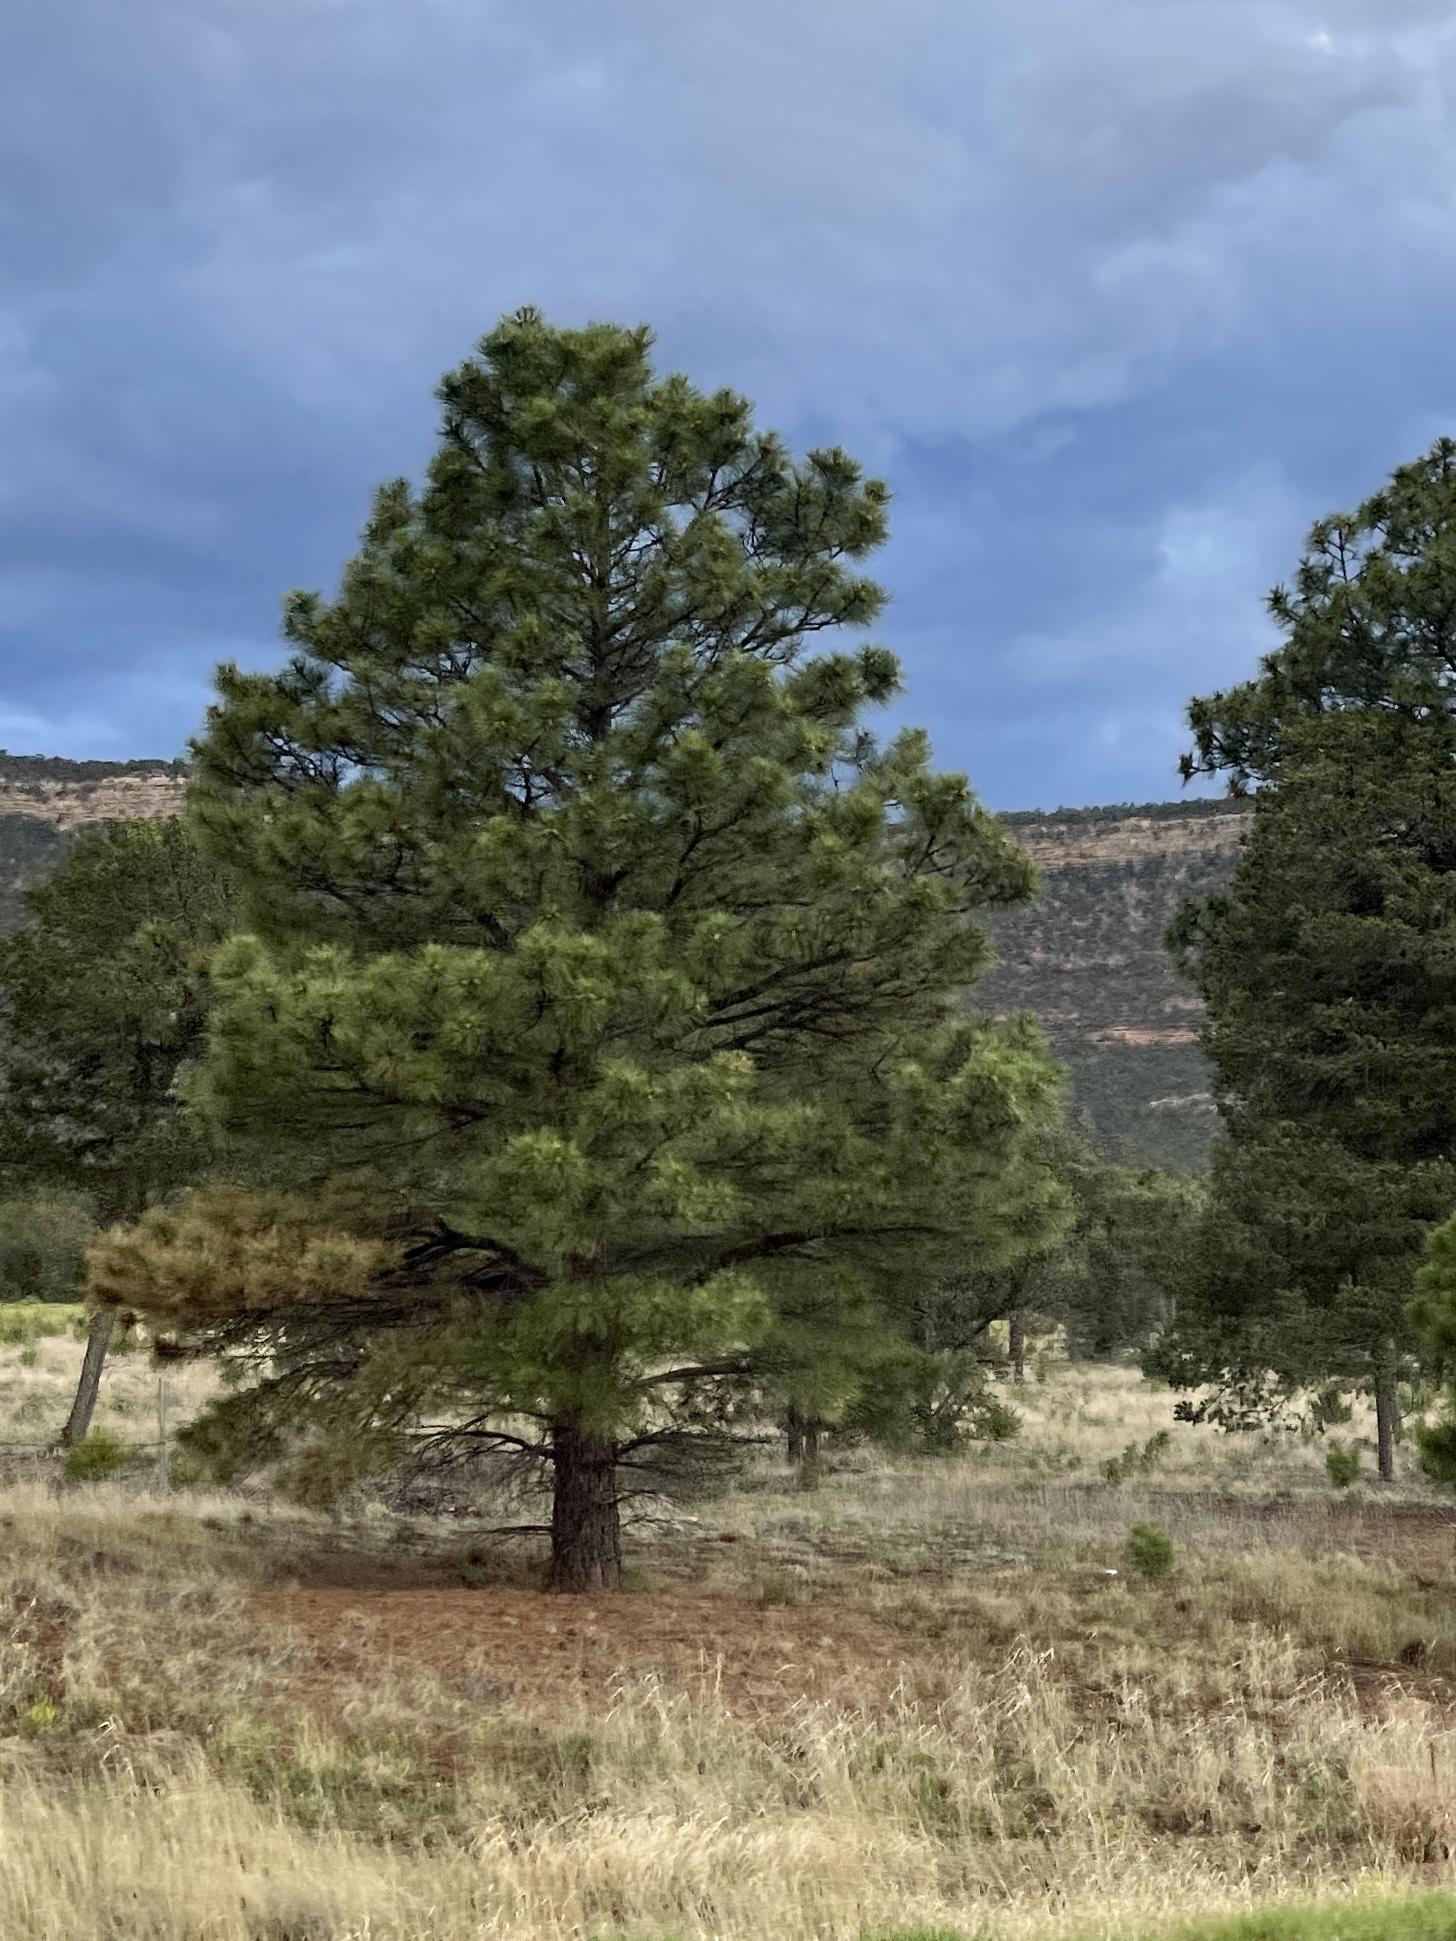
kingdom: Plantae
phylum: Tracheophyta
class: Pinopsida
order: Pinales
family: Pinaceae
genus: Pinus
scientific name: Pinus ponderosa
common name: Western yellow-pine
